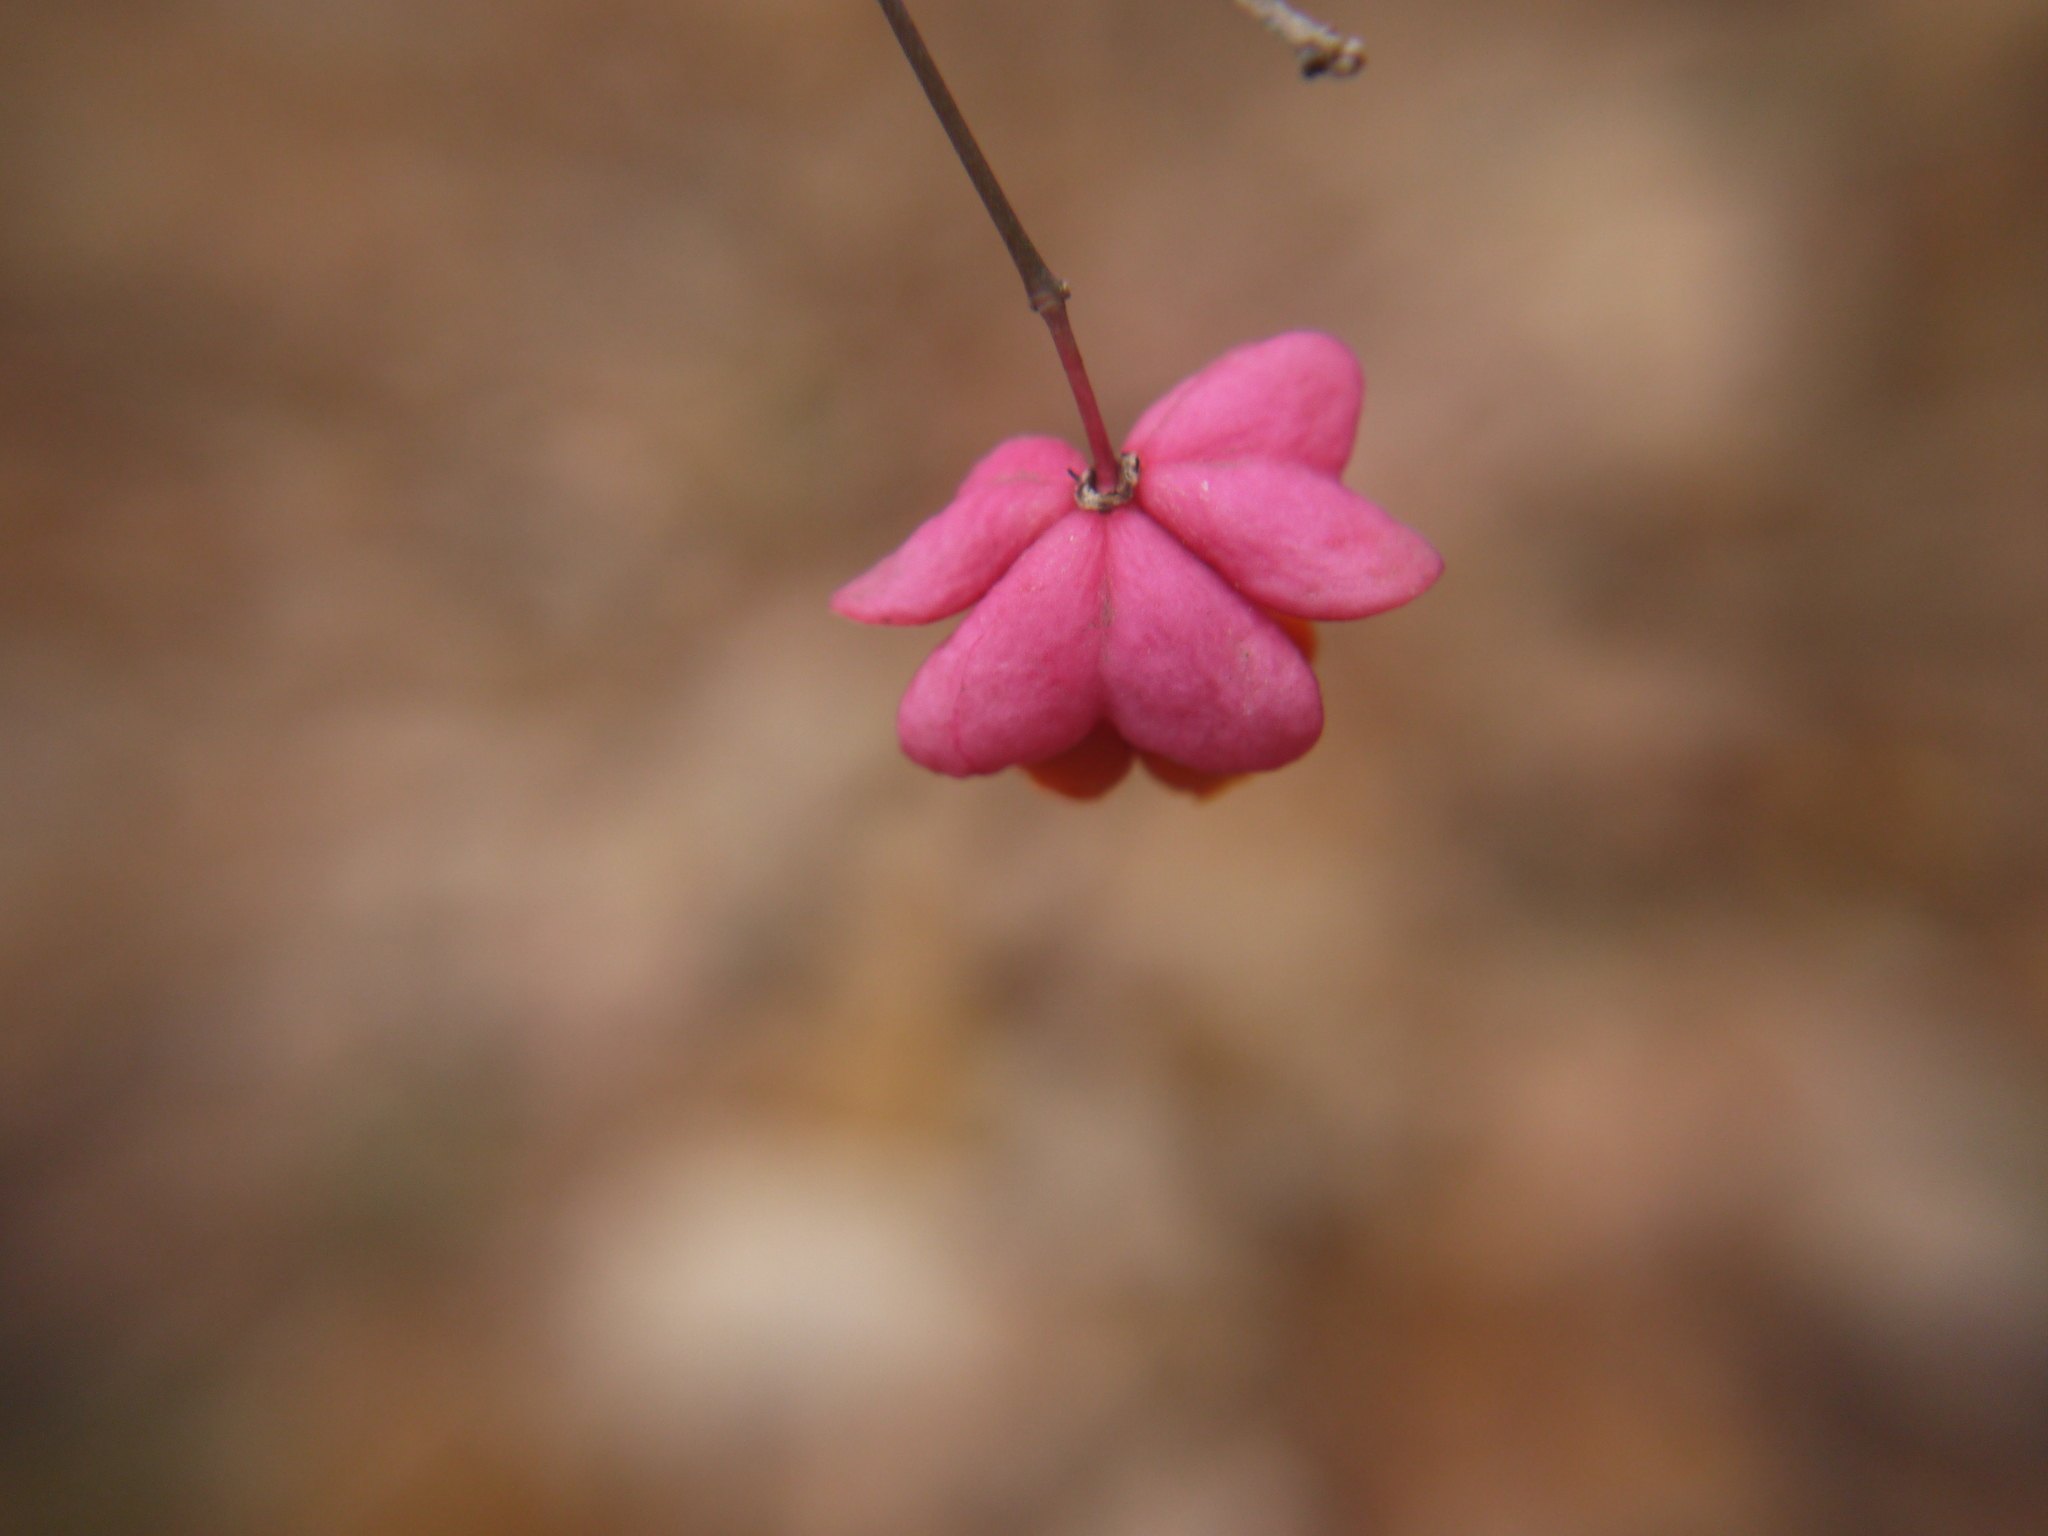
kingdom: Plantae
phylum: Tracheophyta
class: Magnoliopsida
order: Celastrales
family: Celastraceae
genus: Euonymus
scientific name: Euonymus europaeus
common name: Spindle
